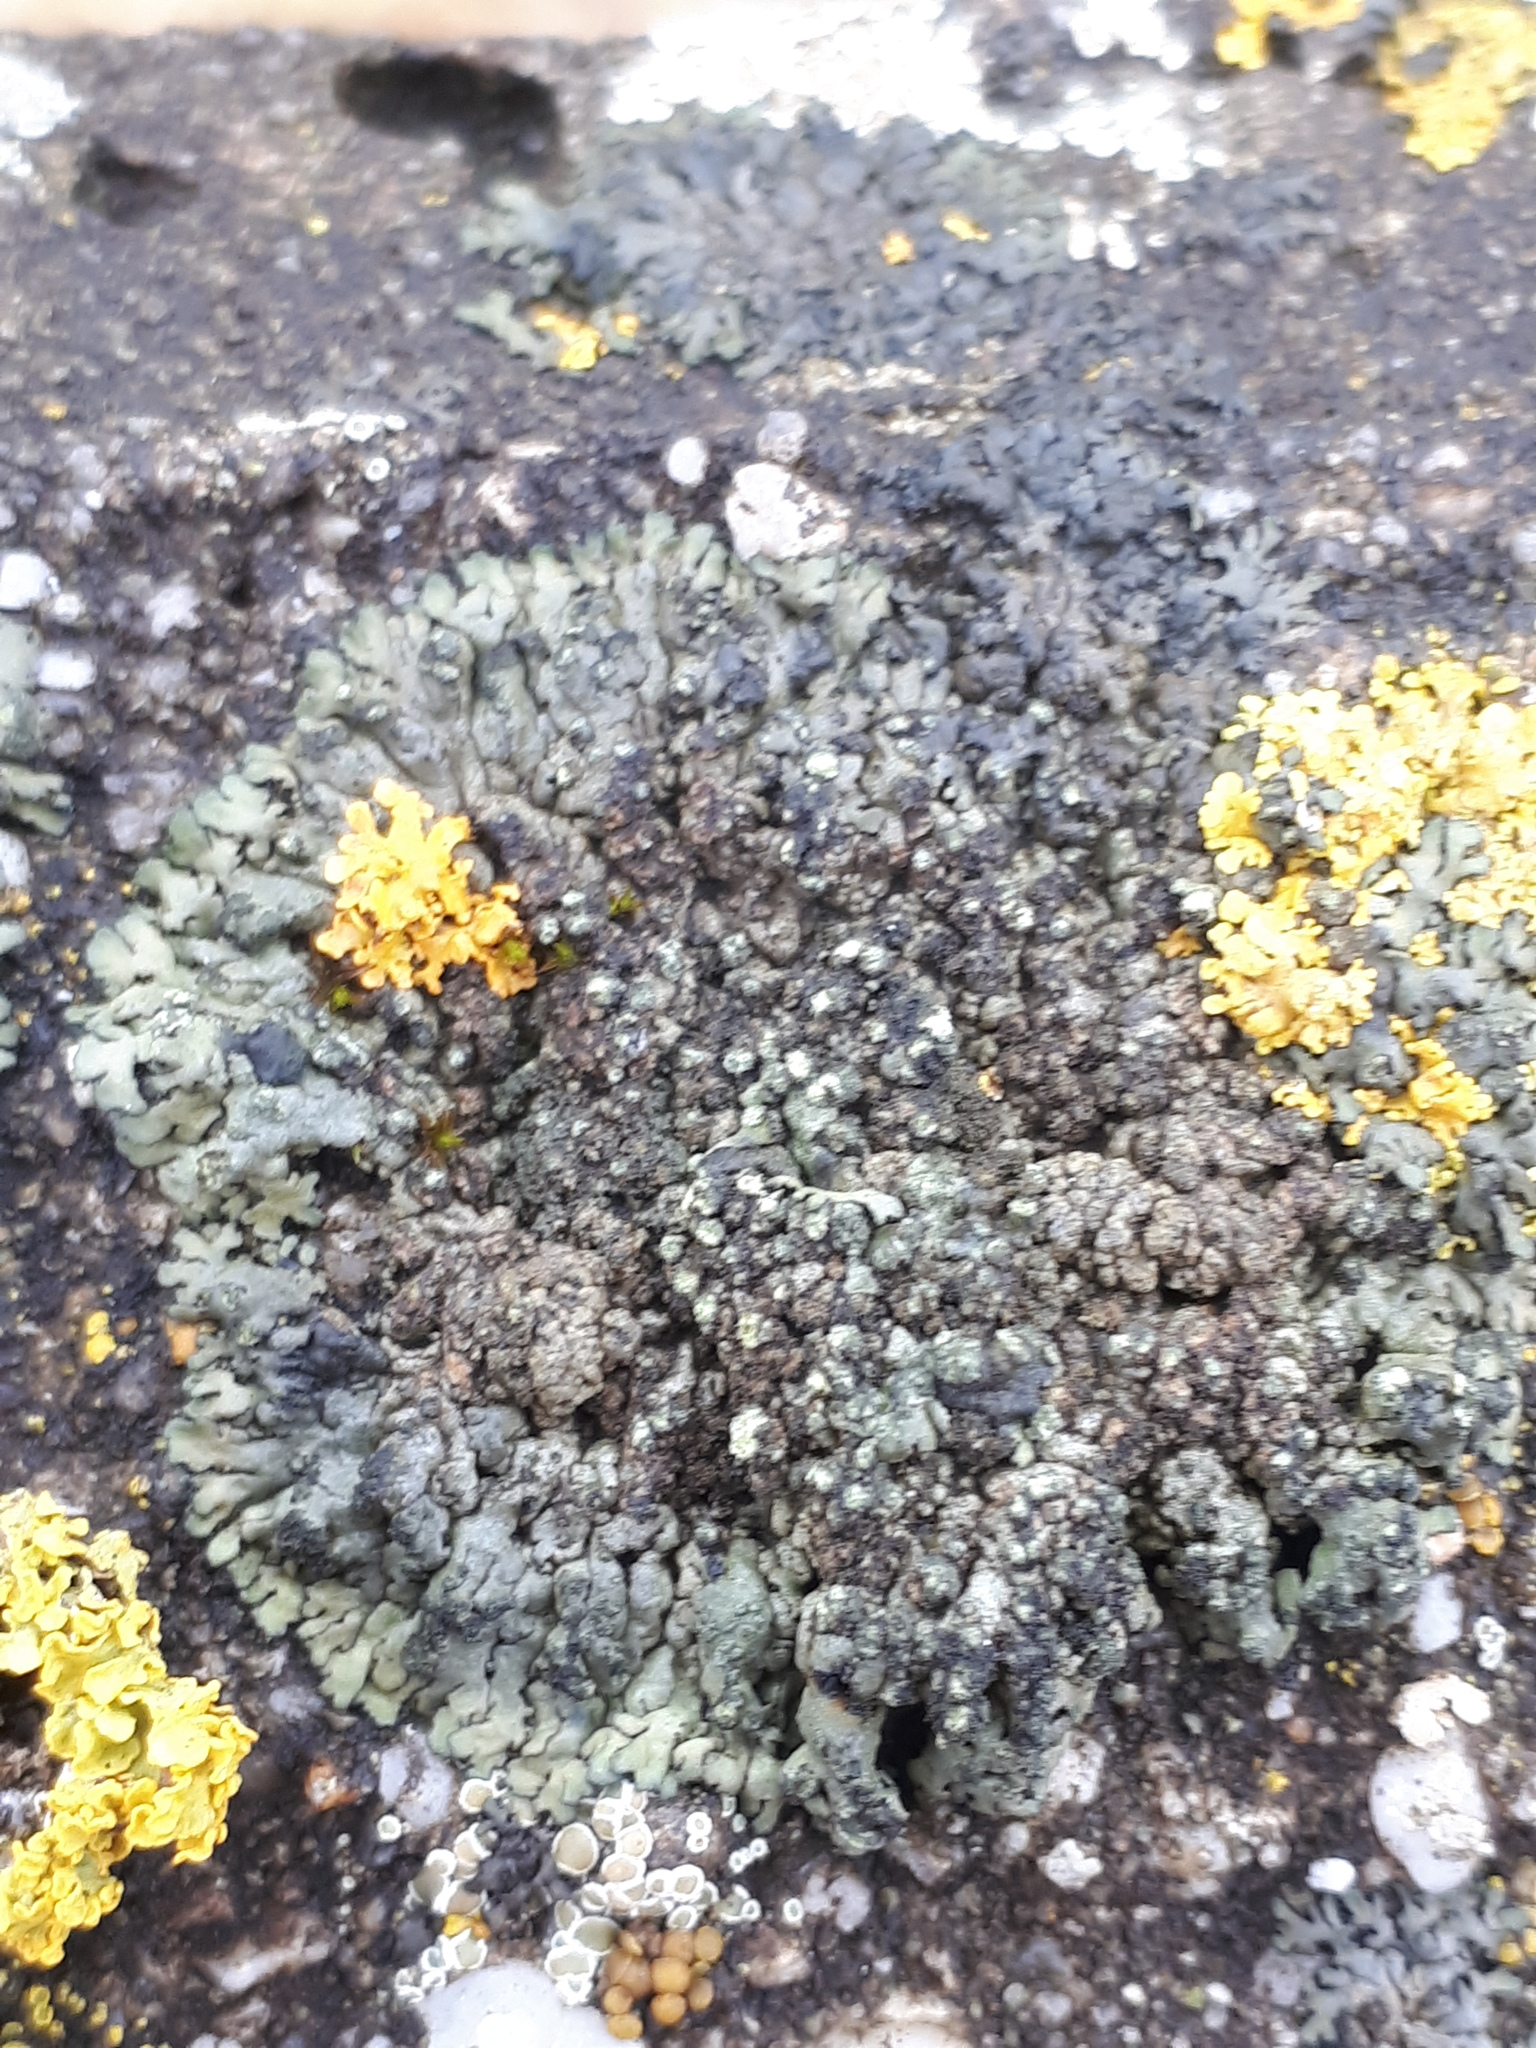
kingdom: Fungi
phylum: Ascomycota
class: Lecanoromycetes
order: Caliciales
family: Physciaceae
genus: Phaeophyscia
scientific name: Phaeophyscia orbicularis
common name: Mealy shadow lichen
